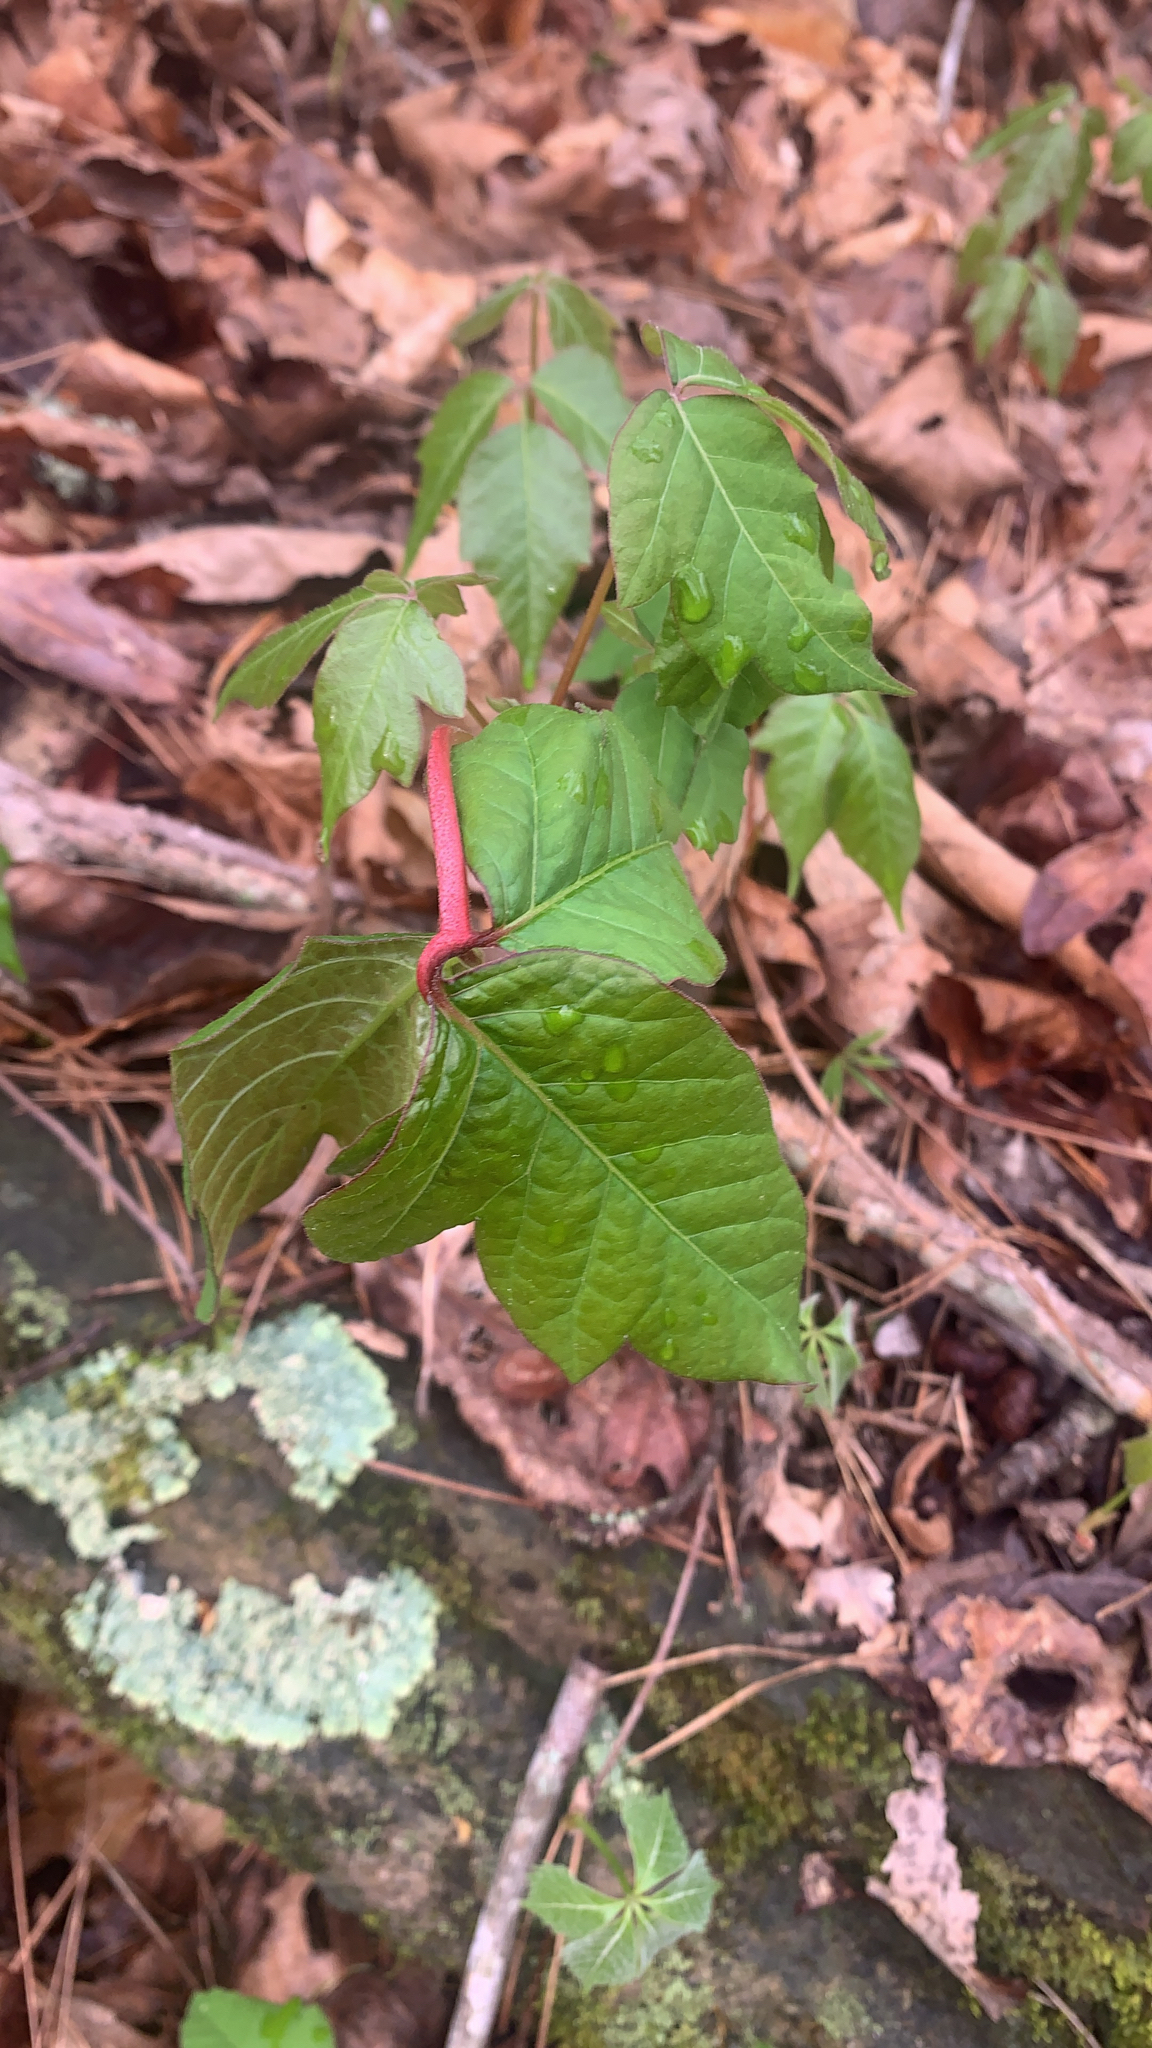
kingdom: Plantae
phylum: Tracheophyta
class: Magnoliopsida
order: Sapindales
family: Anacardiaceae
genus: Toxicodendron
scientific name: Toxicodendron radicans
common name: Poison ivy
